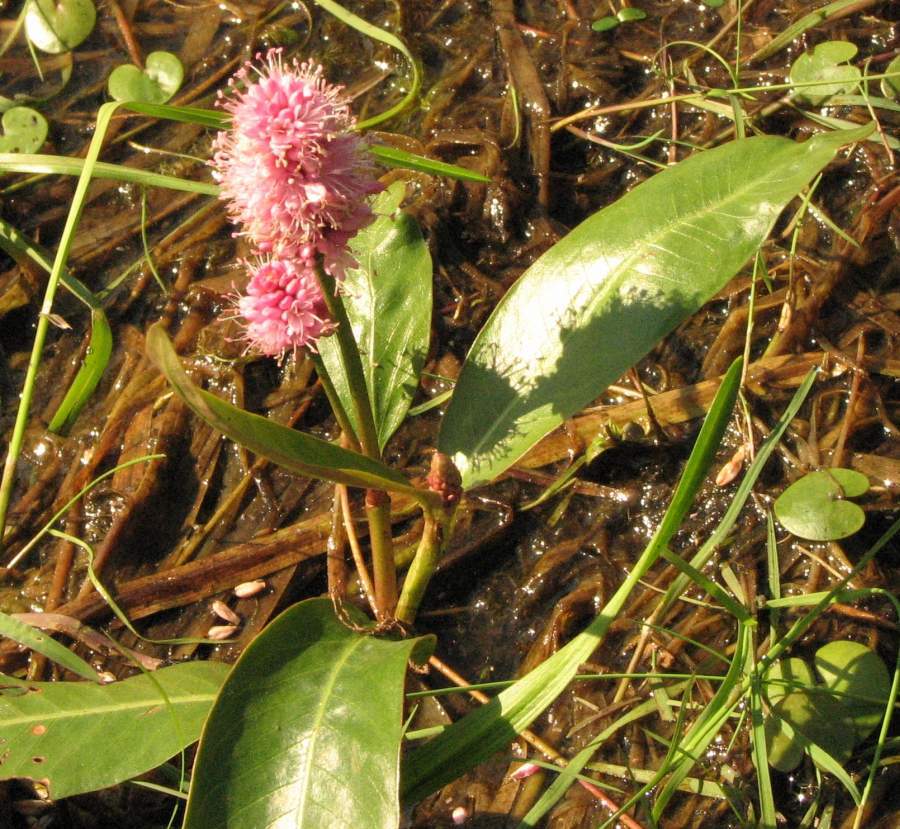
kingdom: Plantae
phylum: Tracheophyta
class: Magnoliopsida
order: Caryophyllales
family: Polygonaceae
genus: Persicaria
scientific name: Persicaria amphibia
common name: Amphibious bistort
